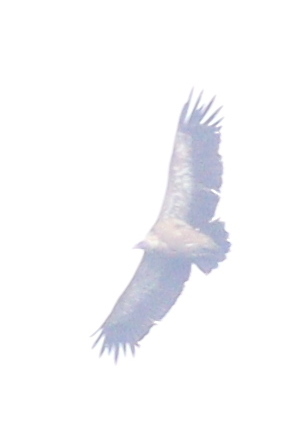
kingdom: Animalia
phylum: Chordata
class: Aves
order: Accipitriformes
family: Accipitridae
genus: Gyps
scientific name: Gyps fulvus
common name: Griffon vulture
